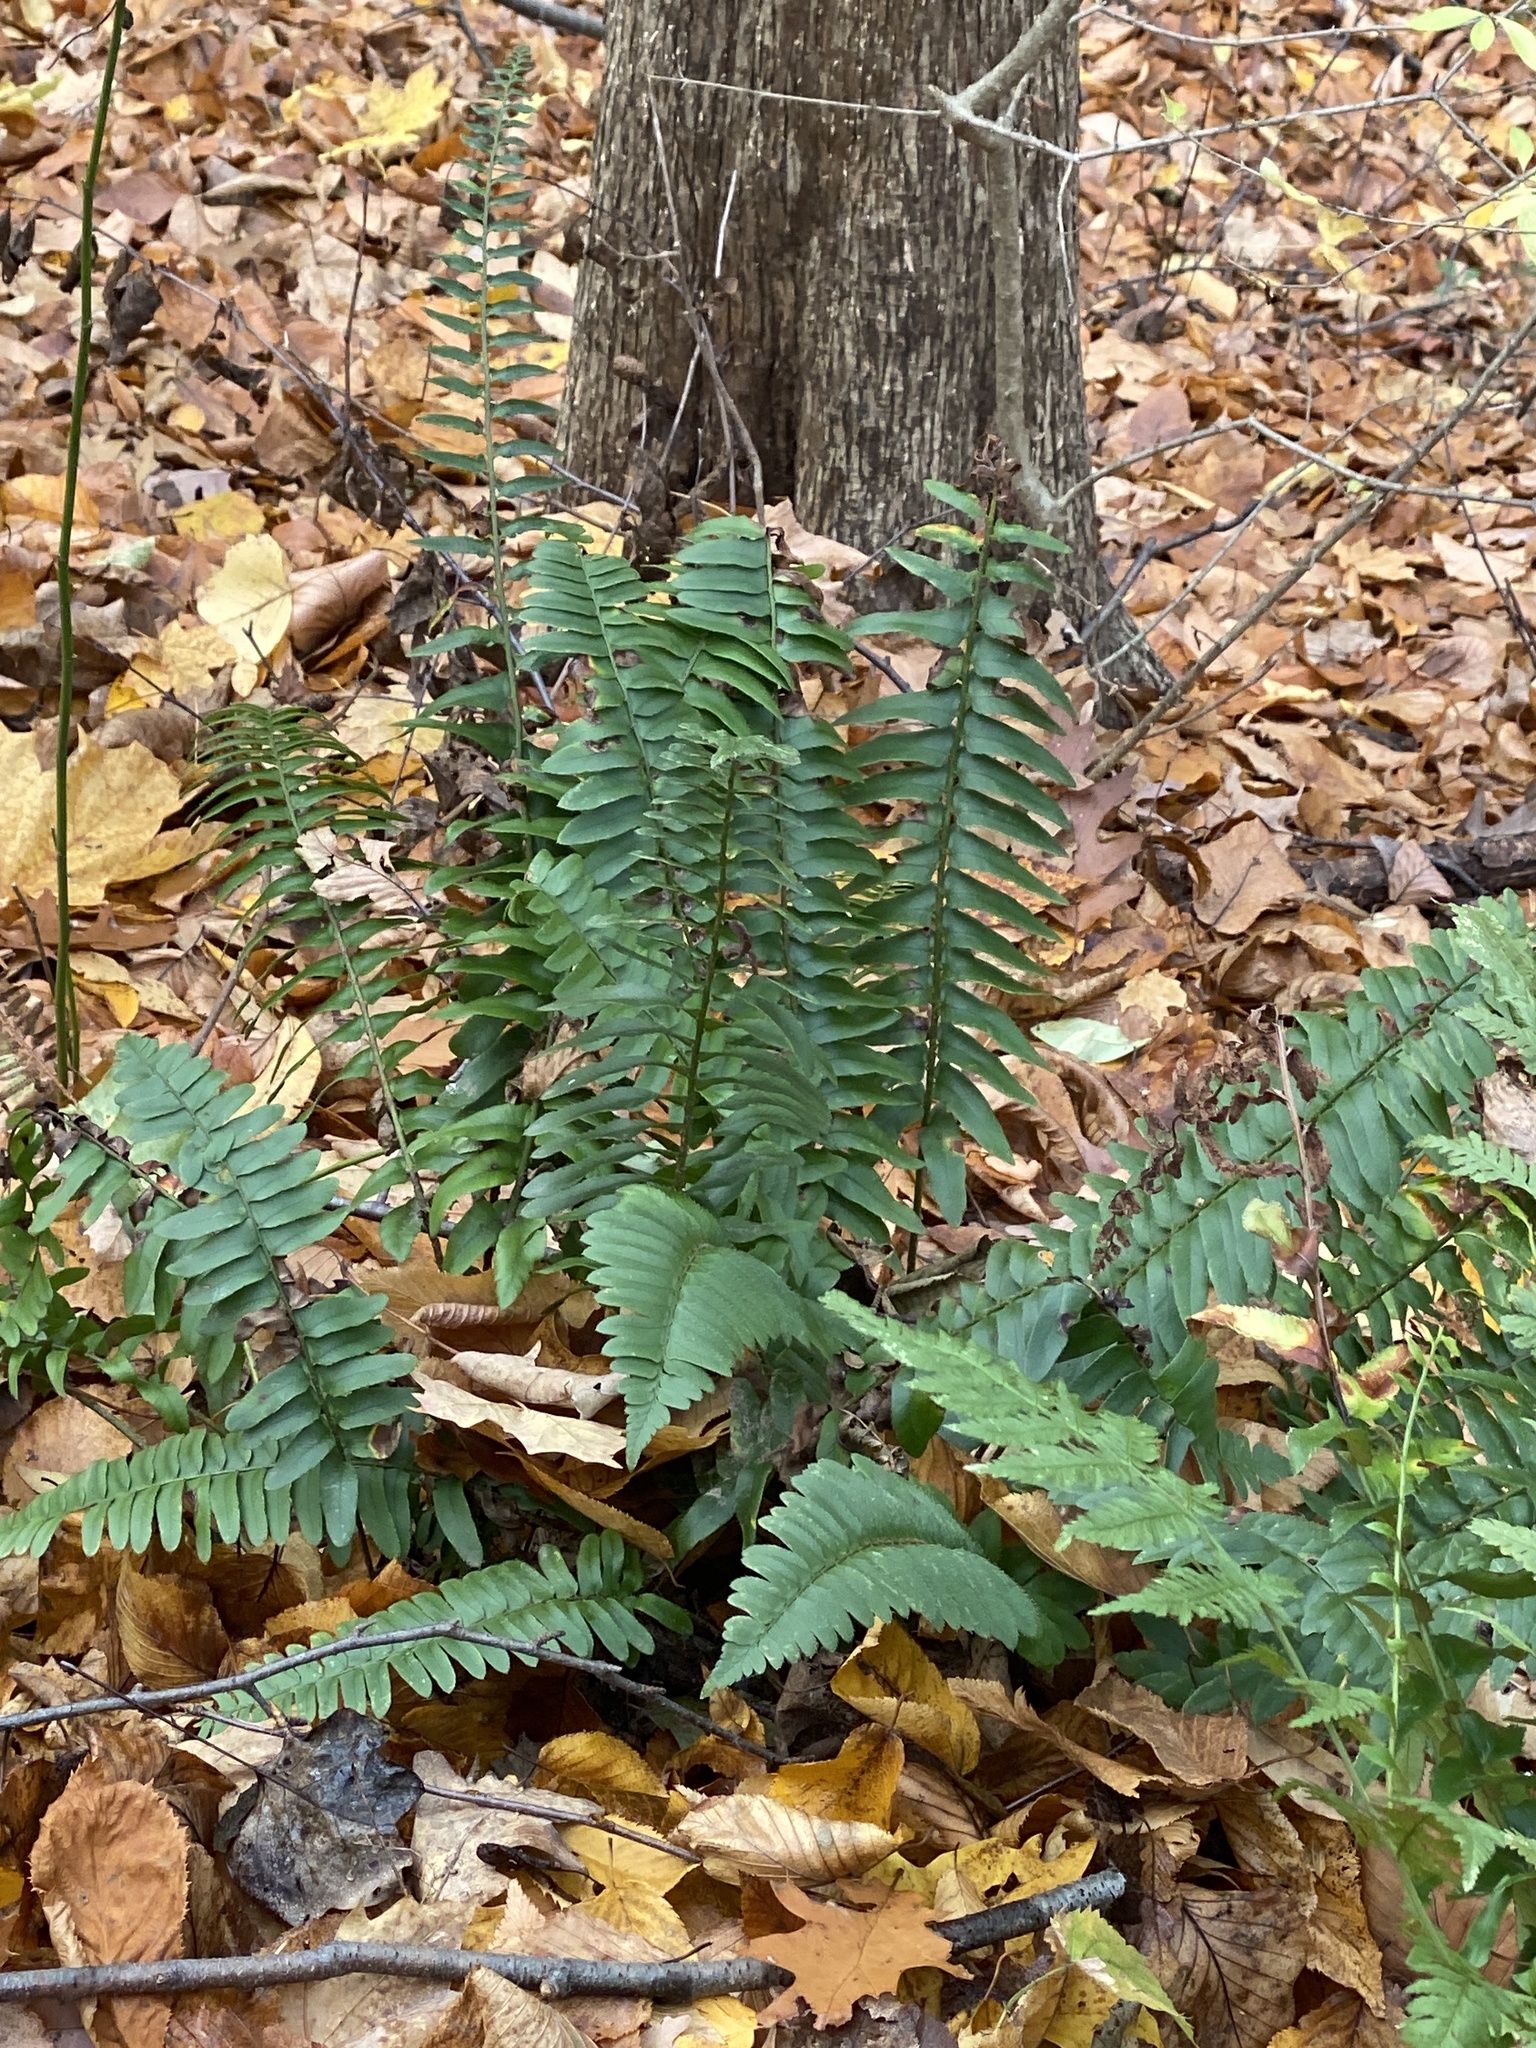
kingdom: Plantae
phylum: Tracheophyta
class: Polypodiopsida
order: Polypodiales
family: Dryopteridaceae
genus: Polystichum
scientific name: Polystichum acrostichoides
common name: Christmas fern
